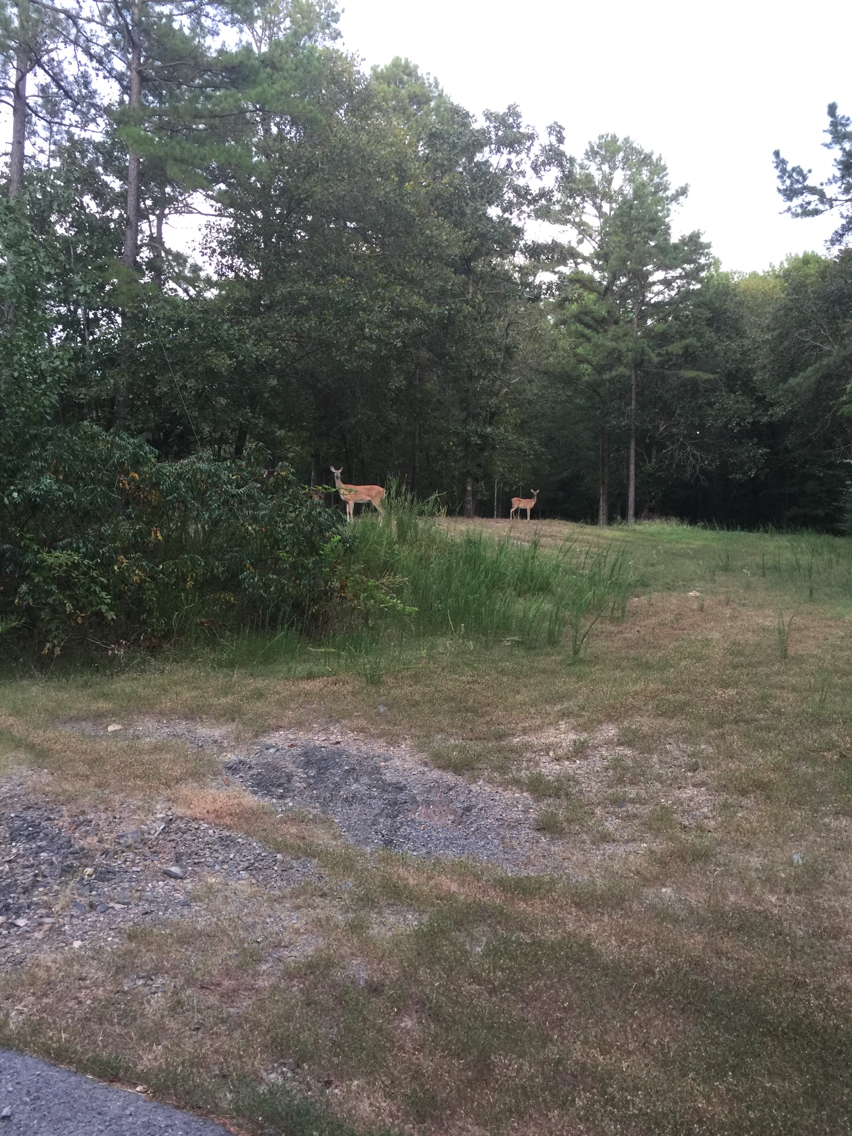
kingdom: Animalia
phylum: Chordata
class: Mammalia
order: Artiodactyla
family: Cervidae
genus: Odocoileus
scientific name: Odocoileus virginianus
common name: White-tailed deer
